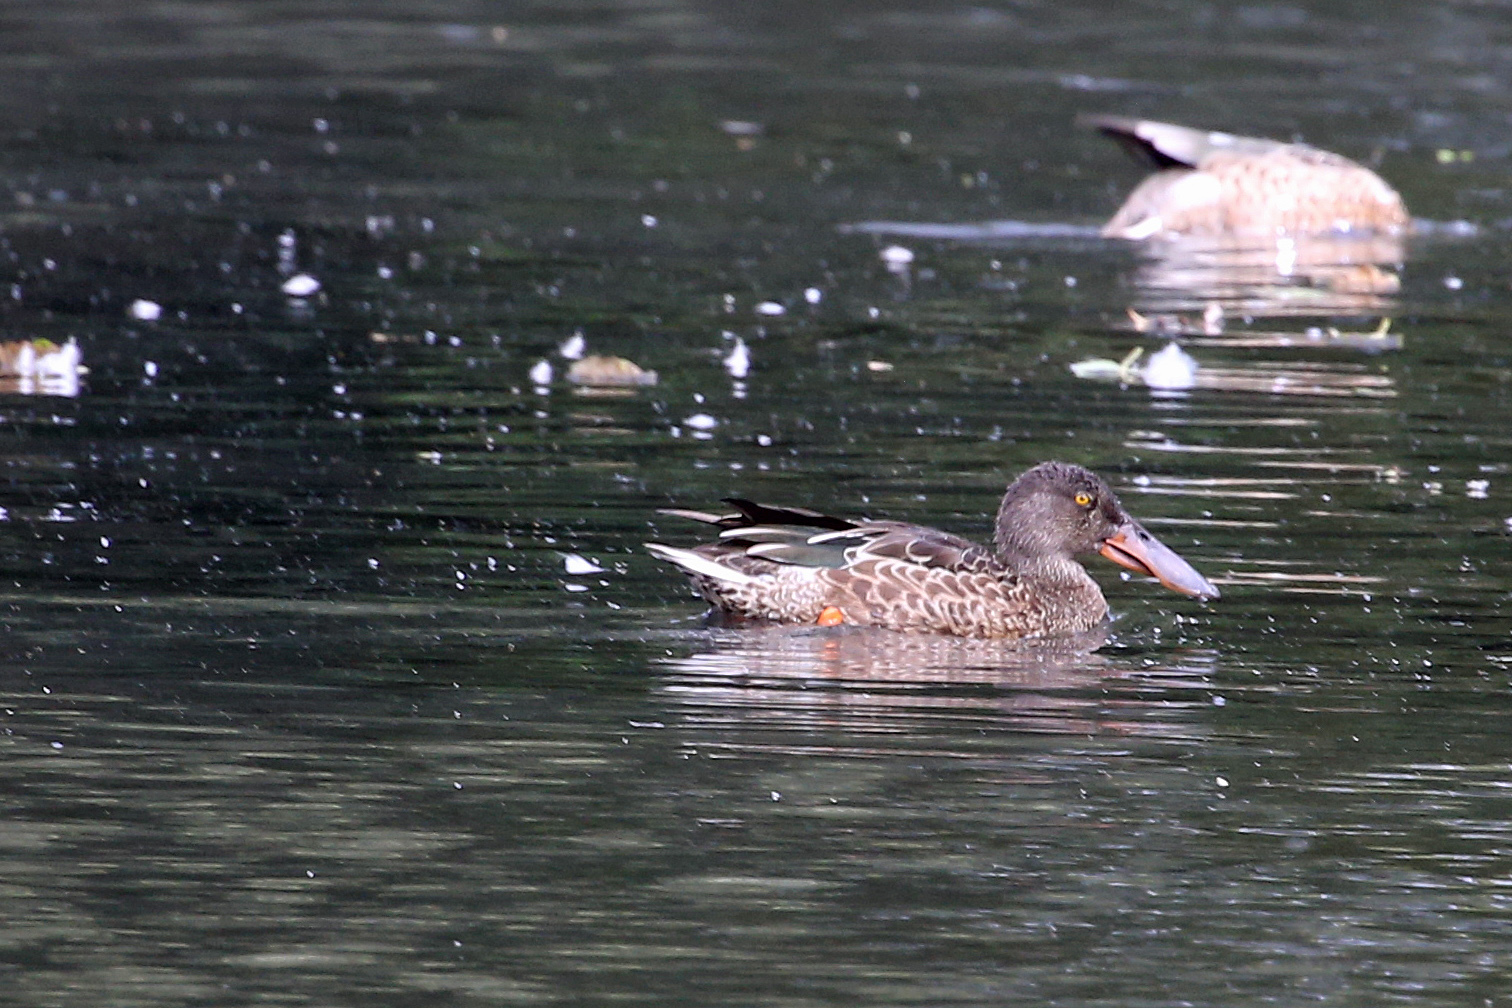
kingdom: Animalia
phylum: Chordata
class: Aves
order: Anseriformes
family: Anatidae
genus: Spatula
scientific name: Spatula clypeata
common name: Northern shoveler
